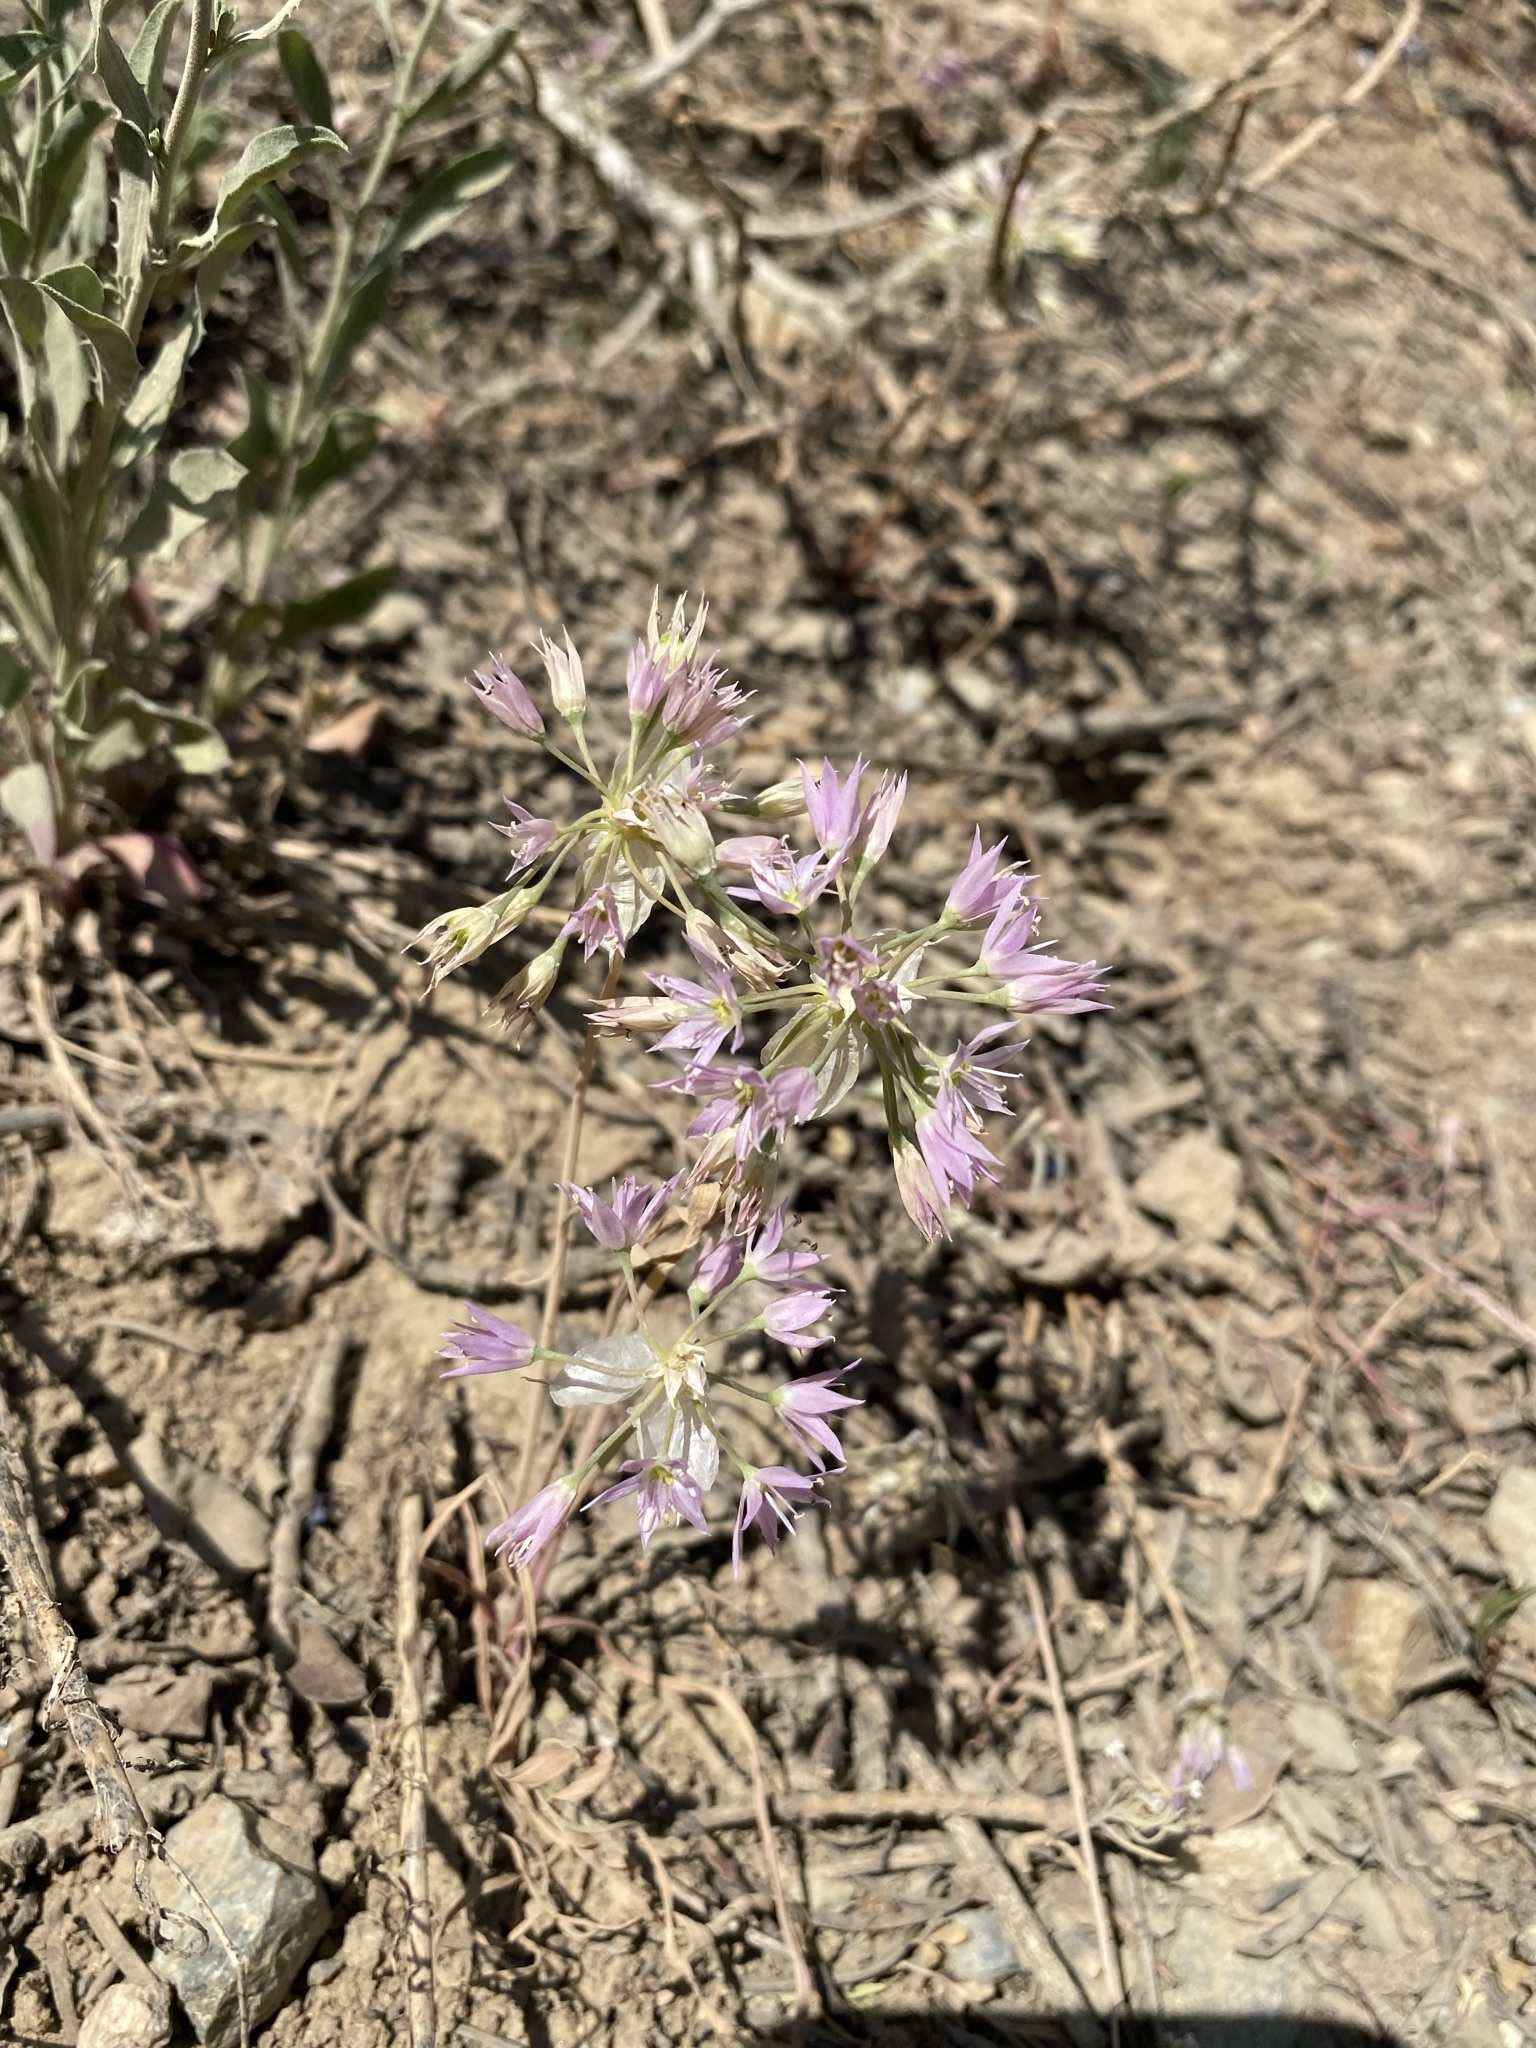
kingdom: Plantae
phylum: Tracheophyta
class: Liliopsida
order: Asparagales
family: Amaryllidaceae
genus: Allium
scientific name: Allium bisceptrum
